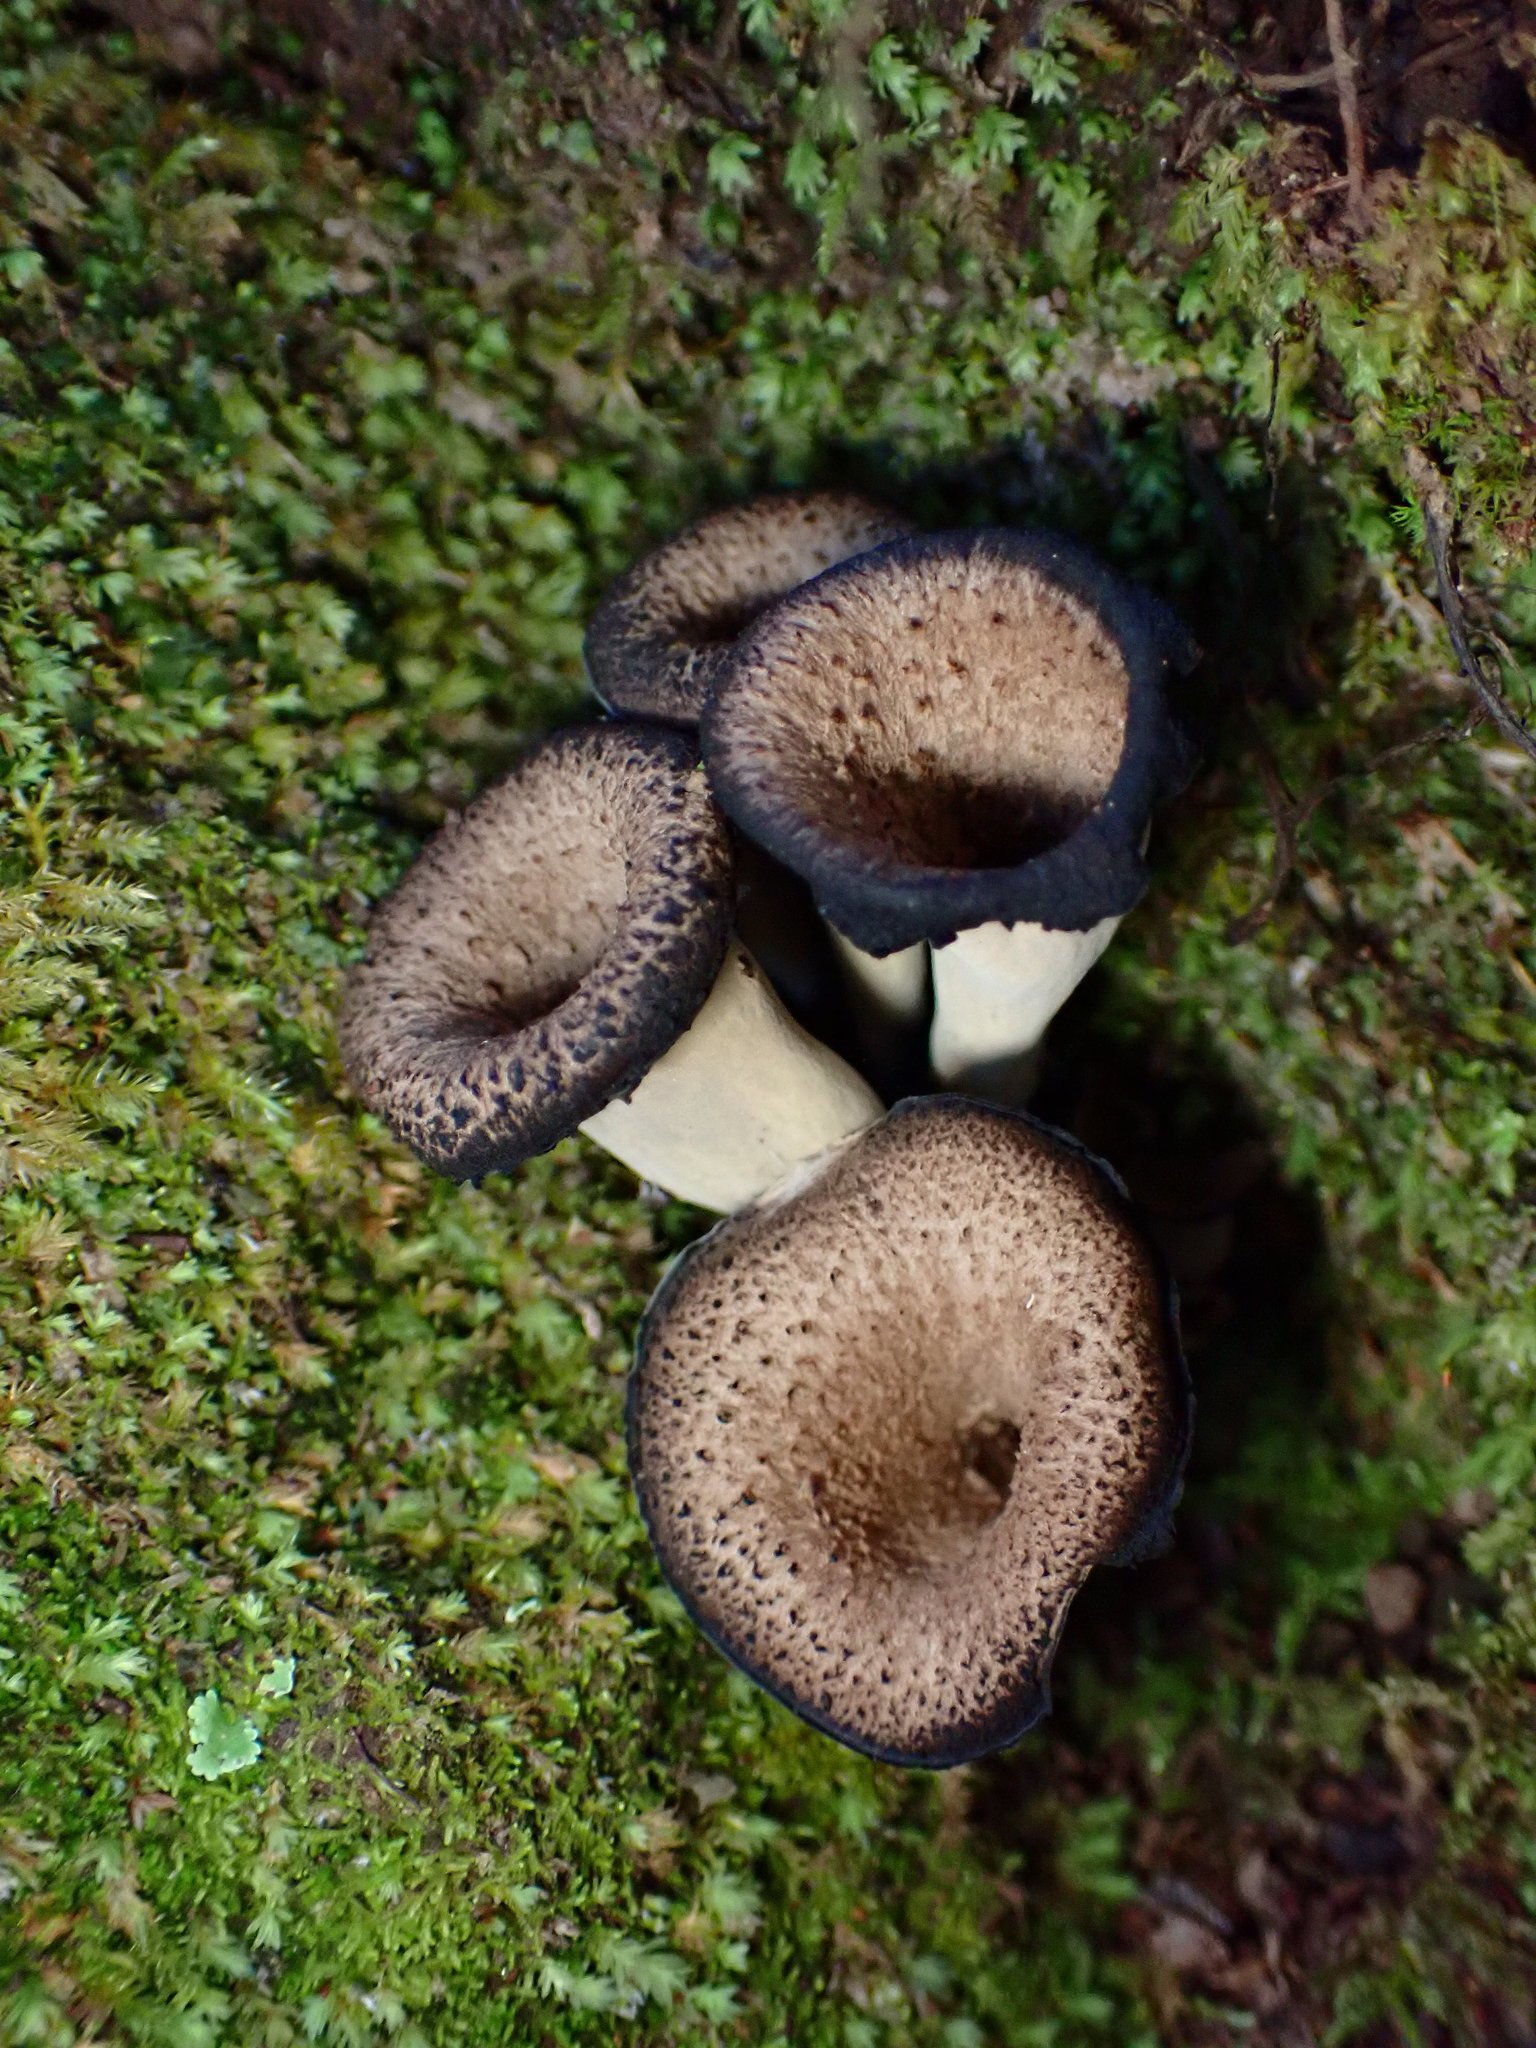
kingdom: Fungi
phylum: Basidiomycota
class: Agaricomycetes
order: Cantharellales
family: Hydnaceae
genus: Craterellus
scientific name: Craterellus calicornucopioides
